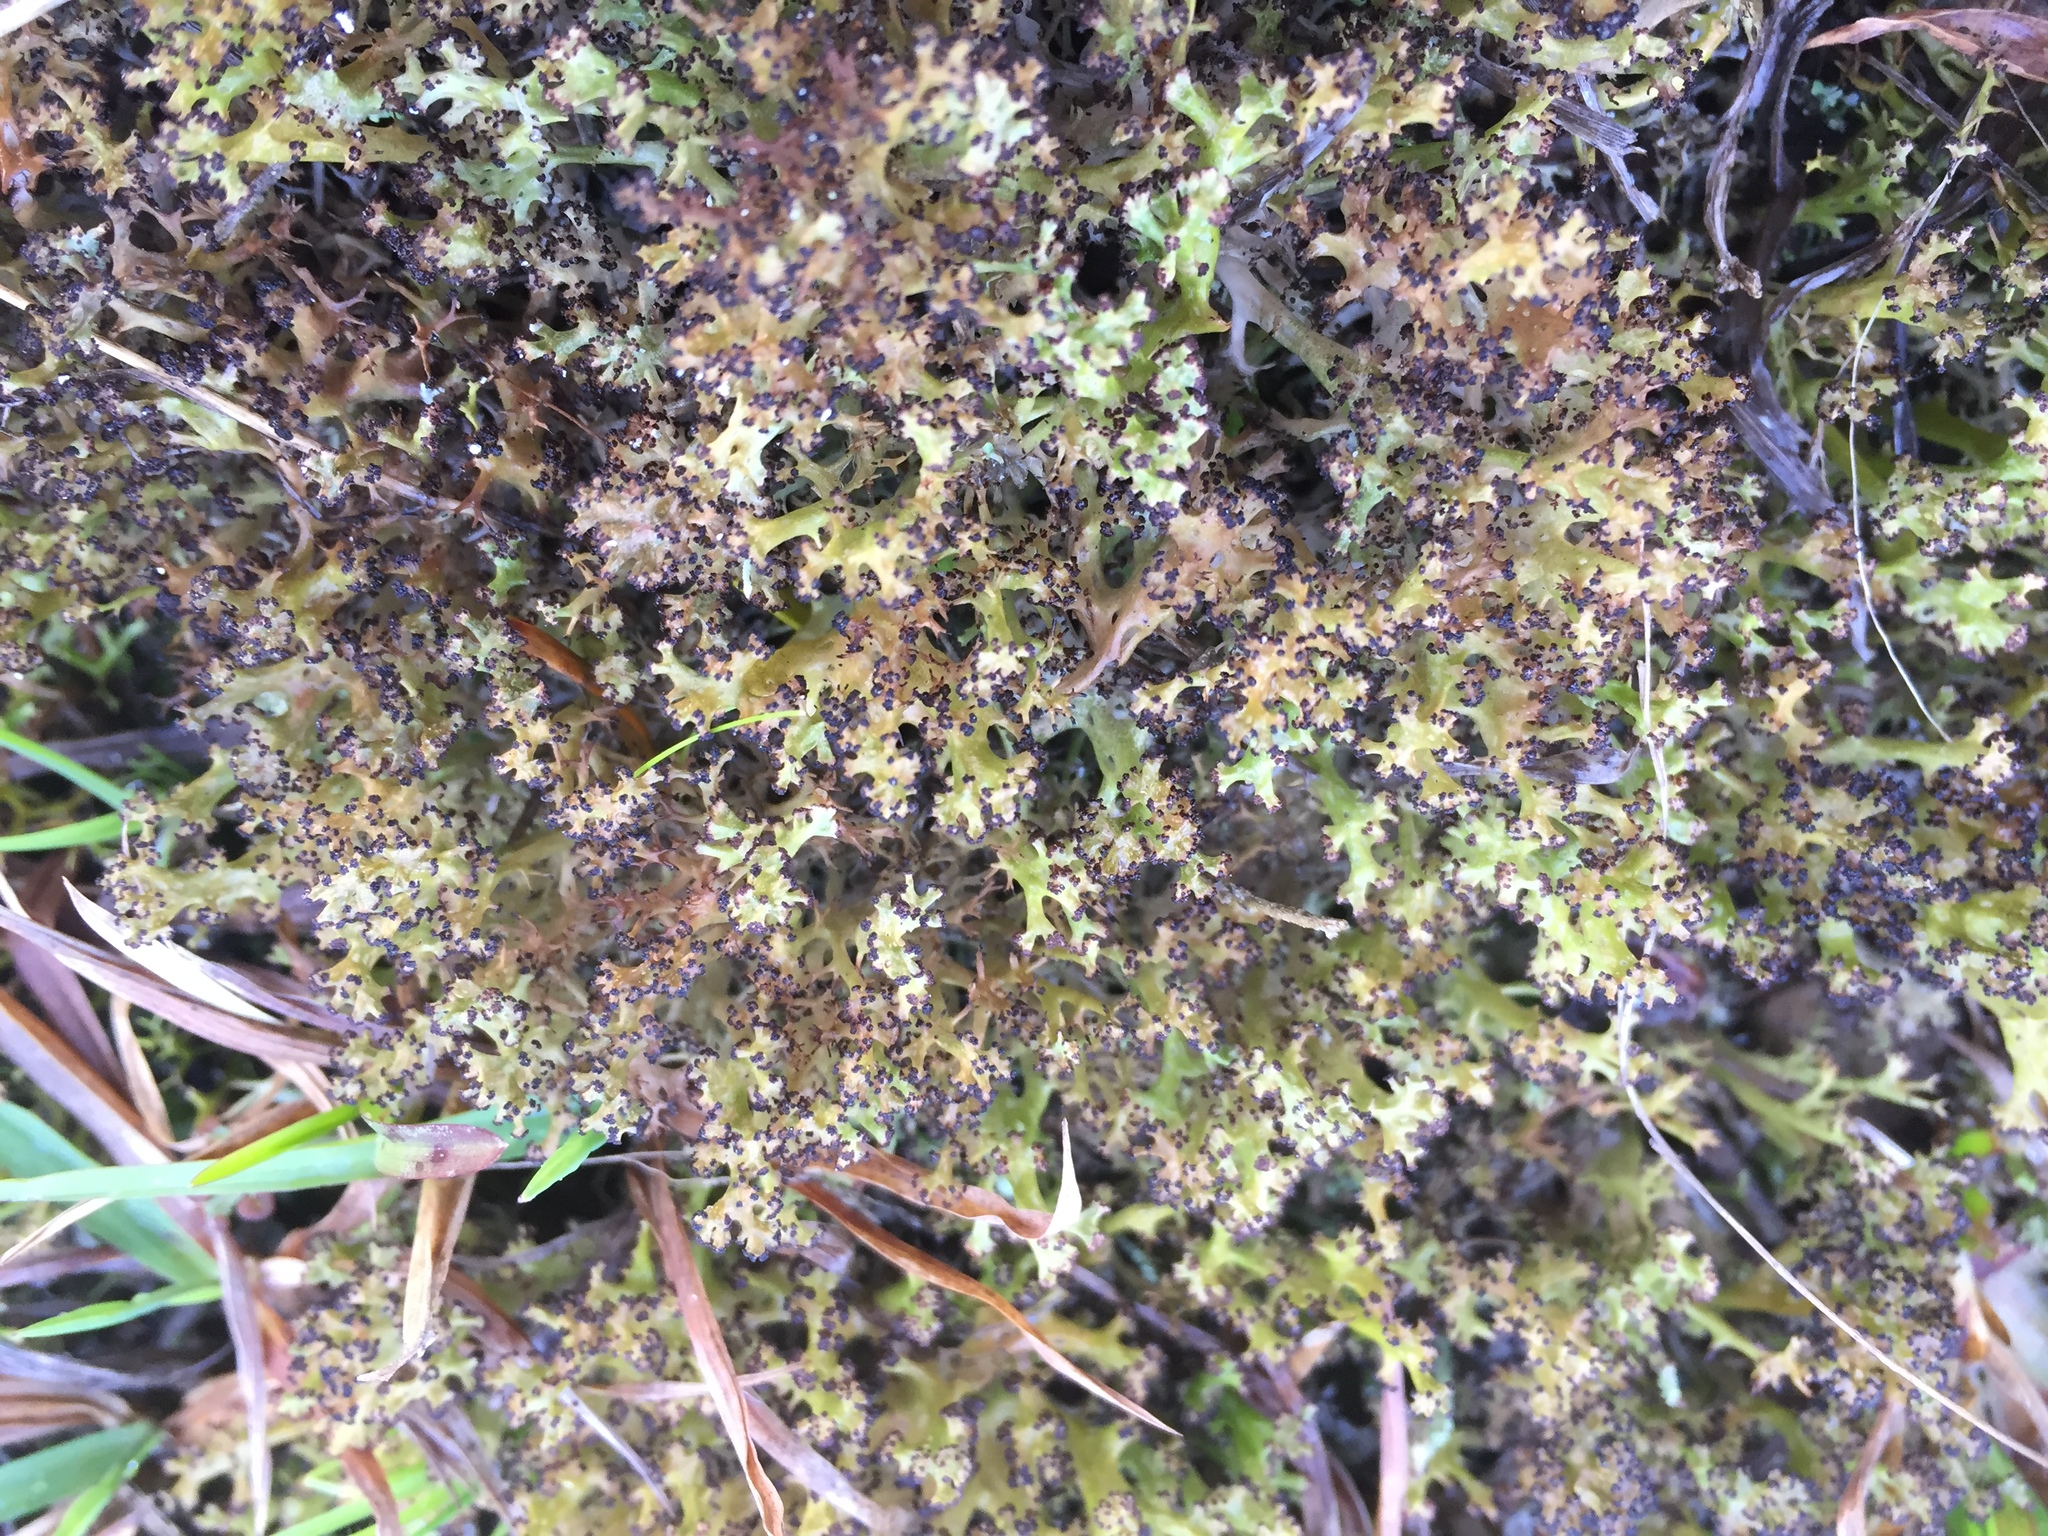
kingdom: Fungi
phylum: Ascomycota
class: Lecanoromycetes
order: Lecanorales
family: Cladoniaceae
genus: Cladia
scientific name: Cladia inflata
